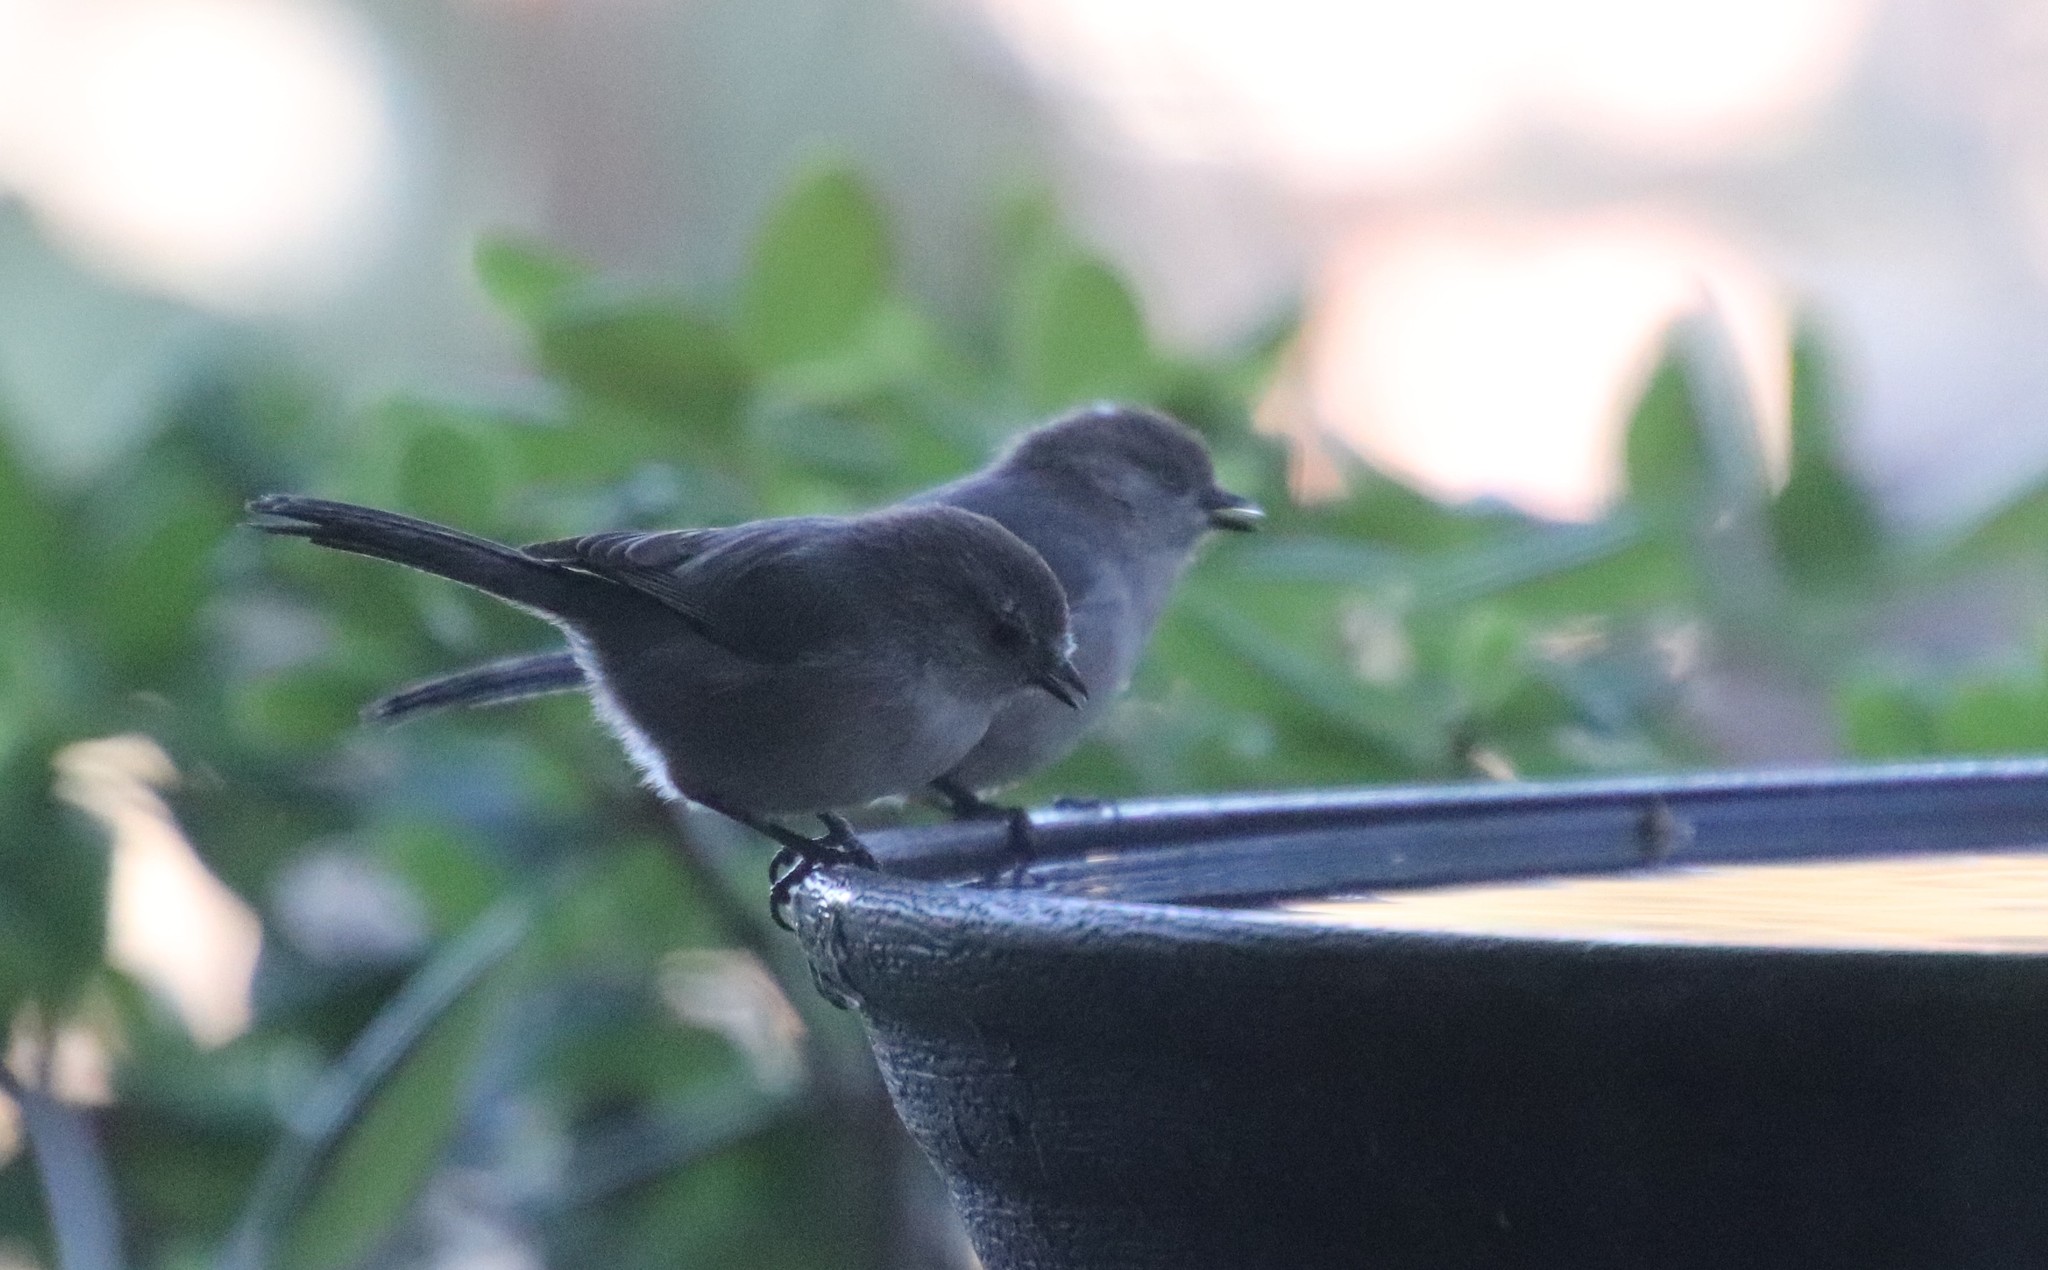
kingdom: Animalia
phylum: Chordata
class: Aves
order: Passeriformes
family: Aegithalidae
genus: Psaltriparus
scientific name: Psaltriparus minimus
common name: American bushtit
